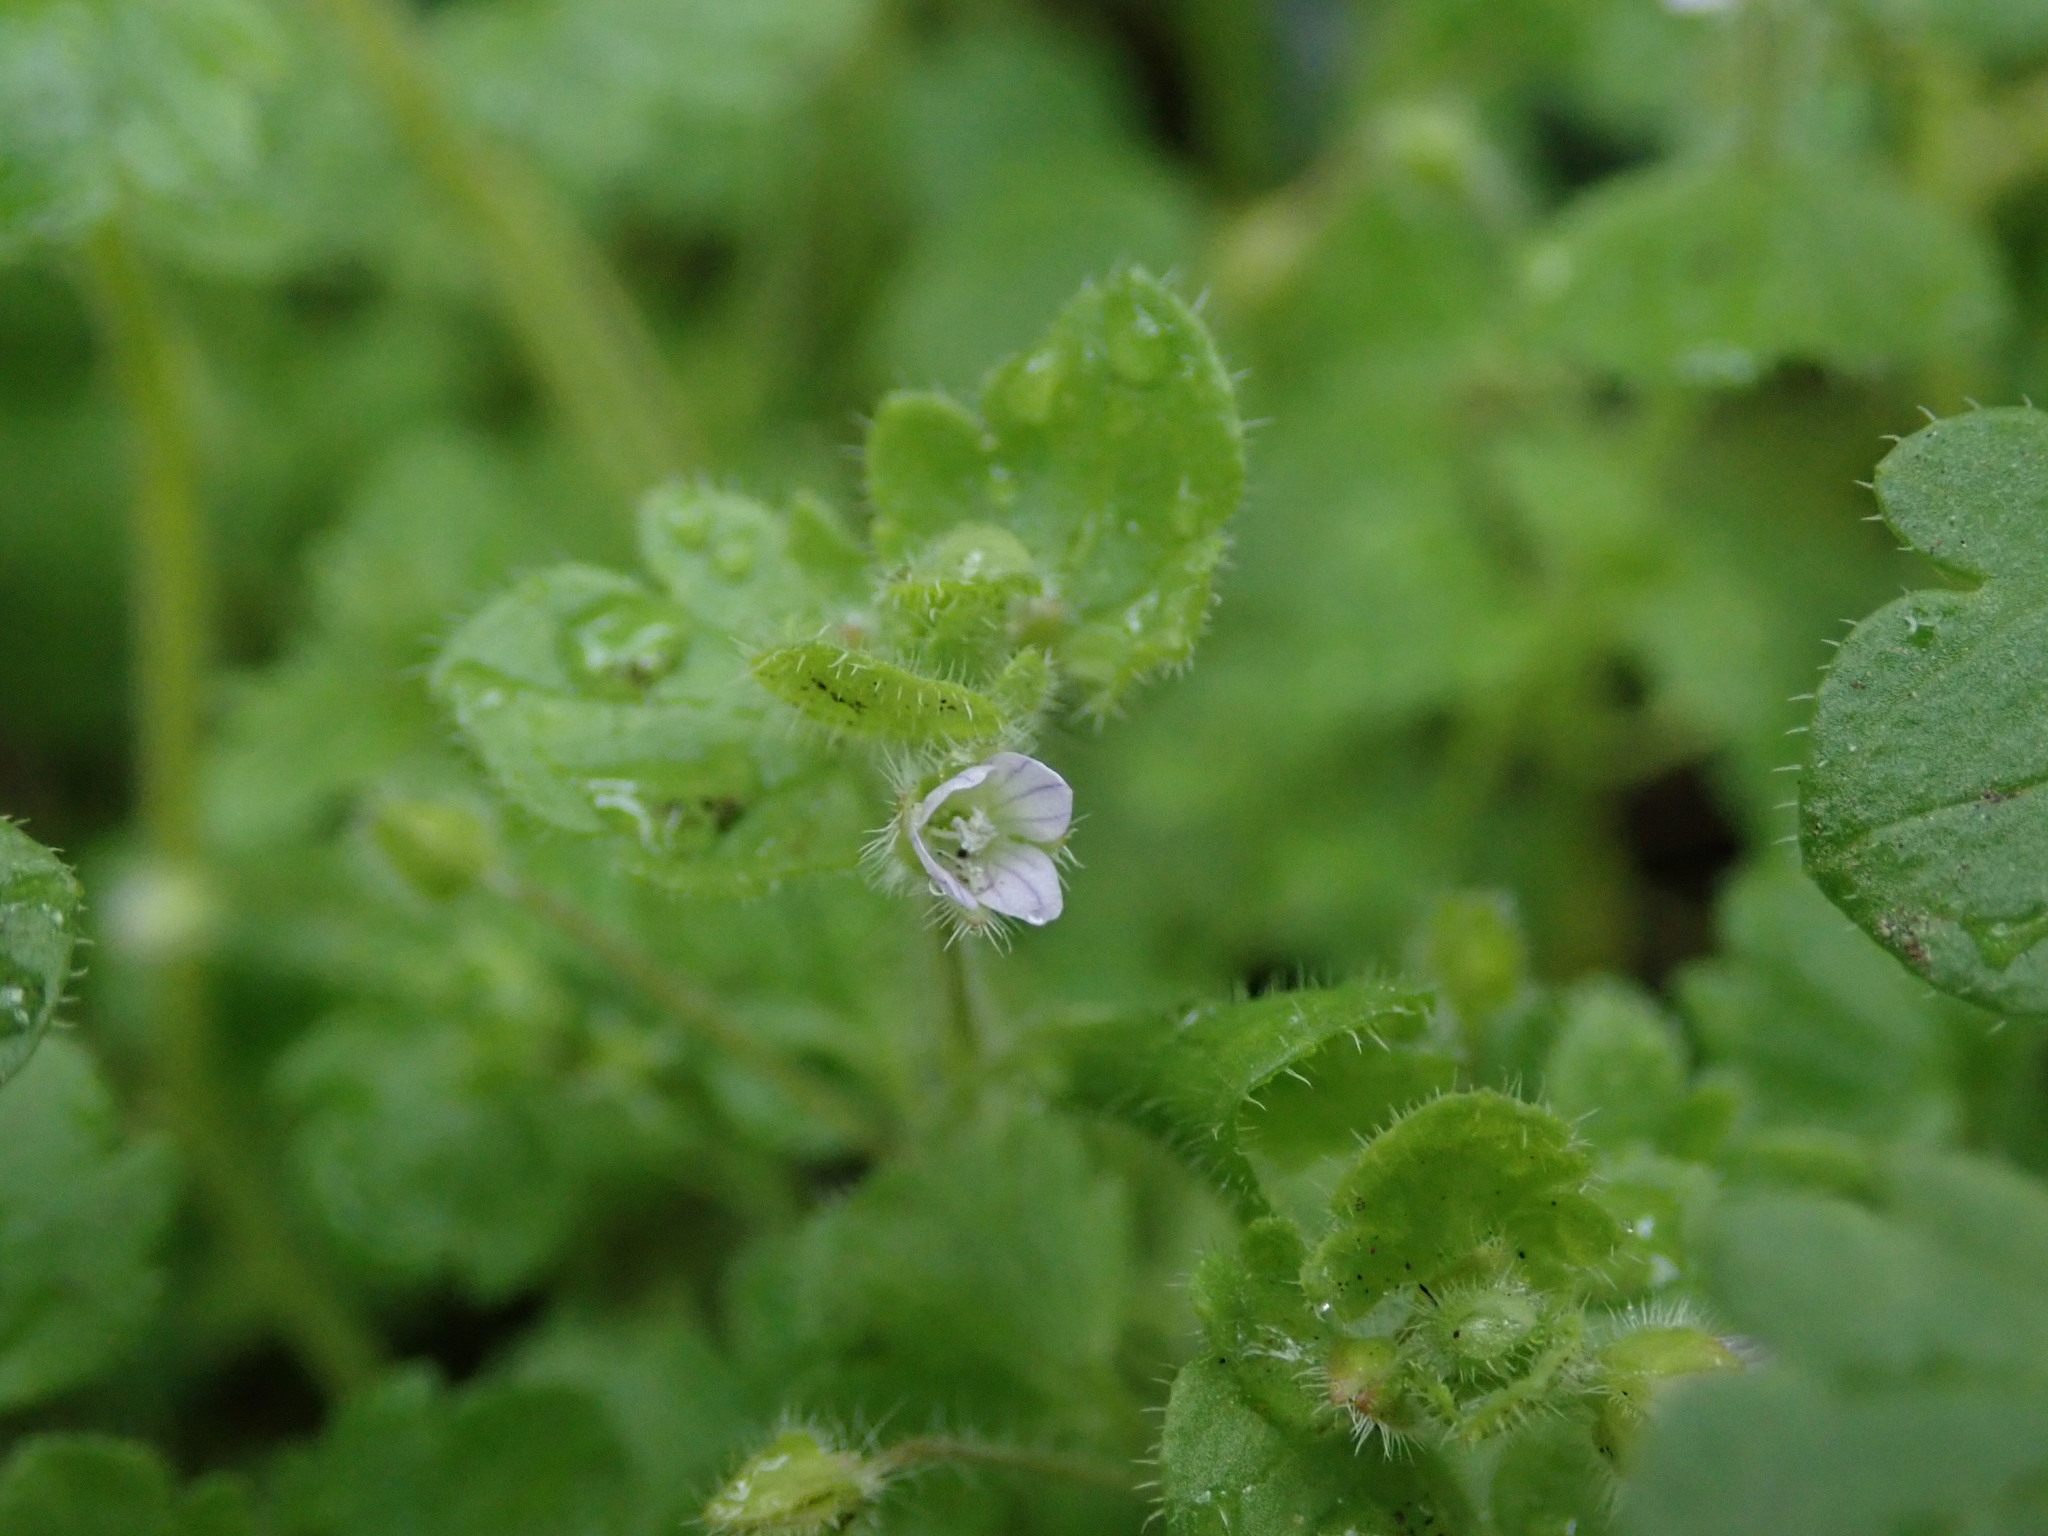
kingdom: Plantae
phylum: Tracheophyta
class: Magnoliopsida
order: Lamiales
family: Plantaginaceae
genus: Veronica
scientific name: Veronica sublobata
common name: False ivy-leaved speedwell
